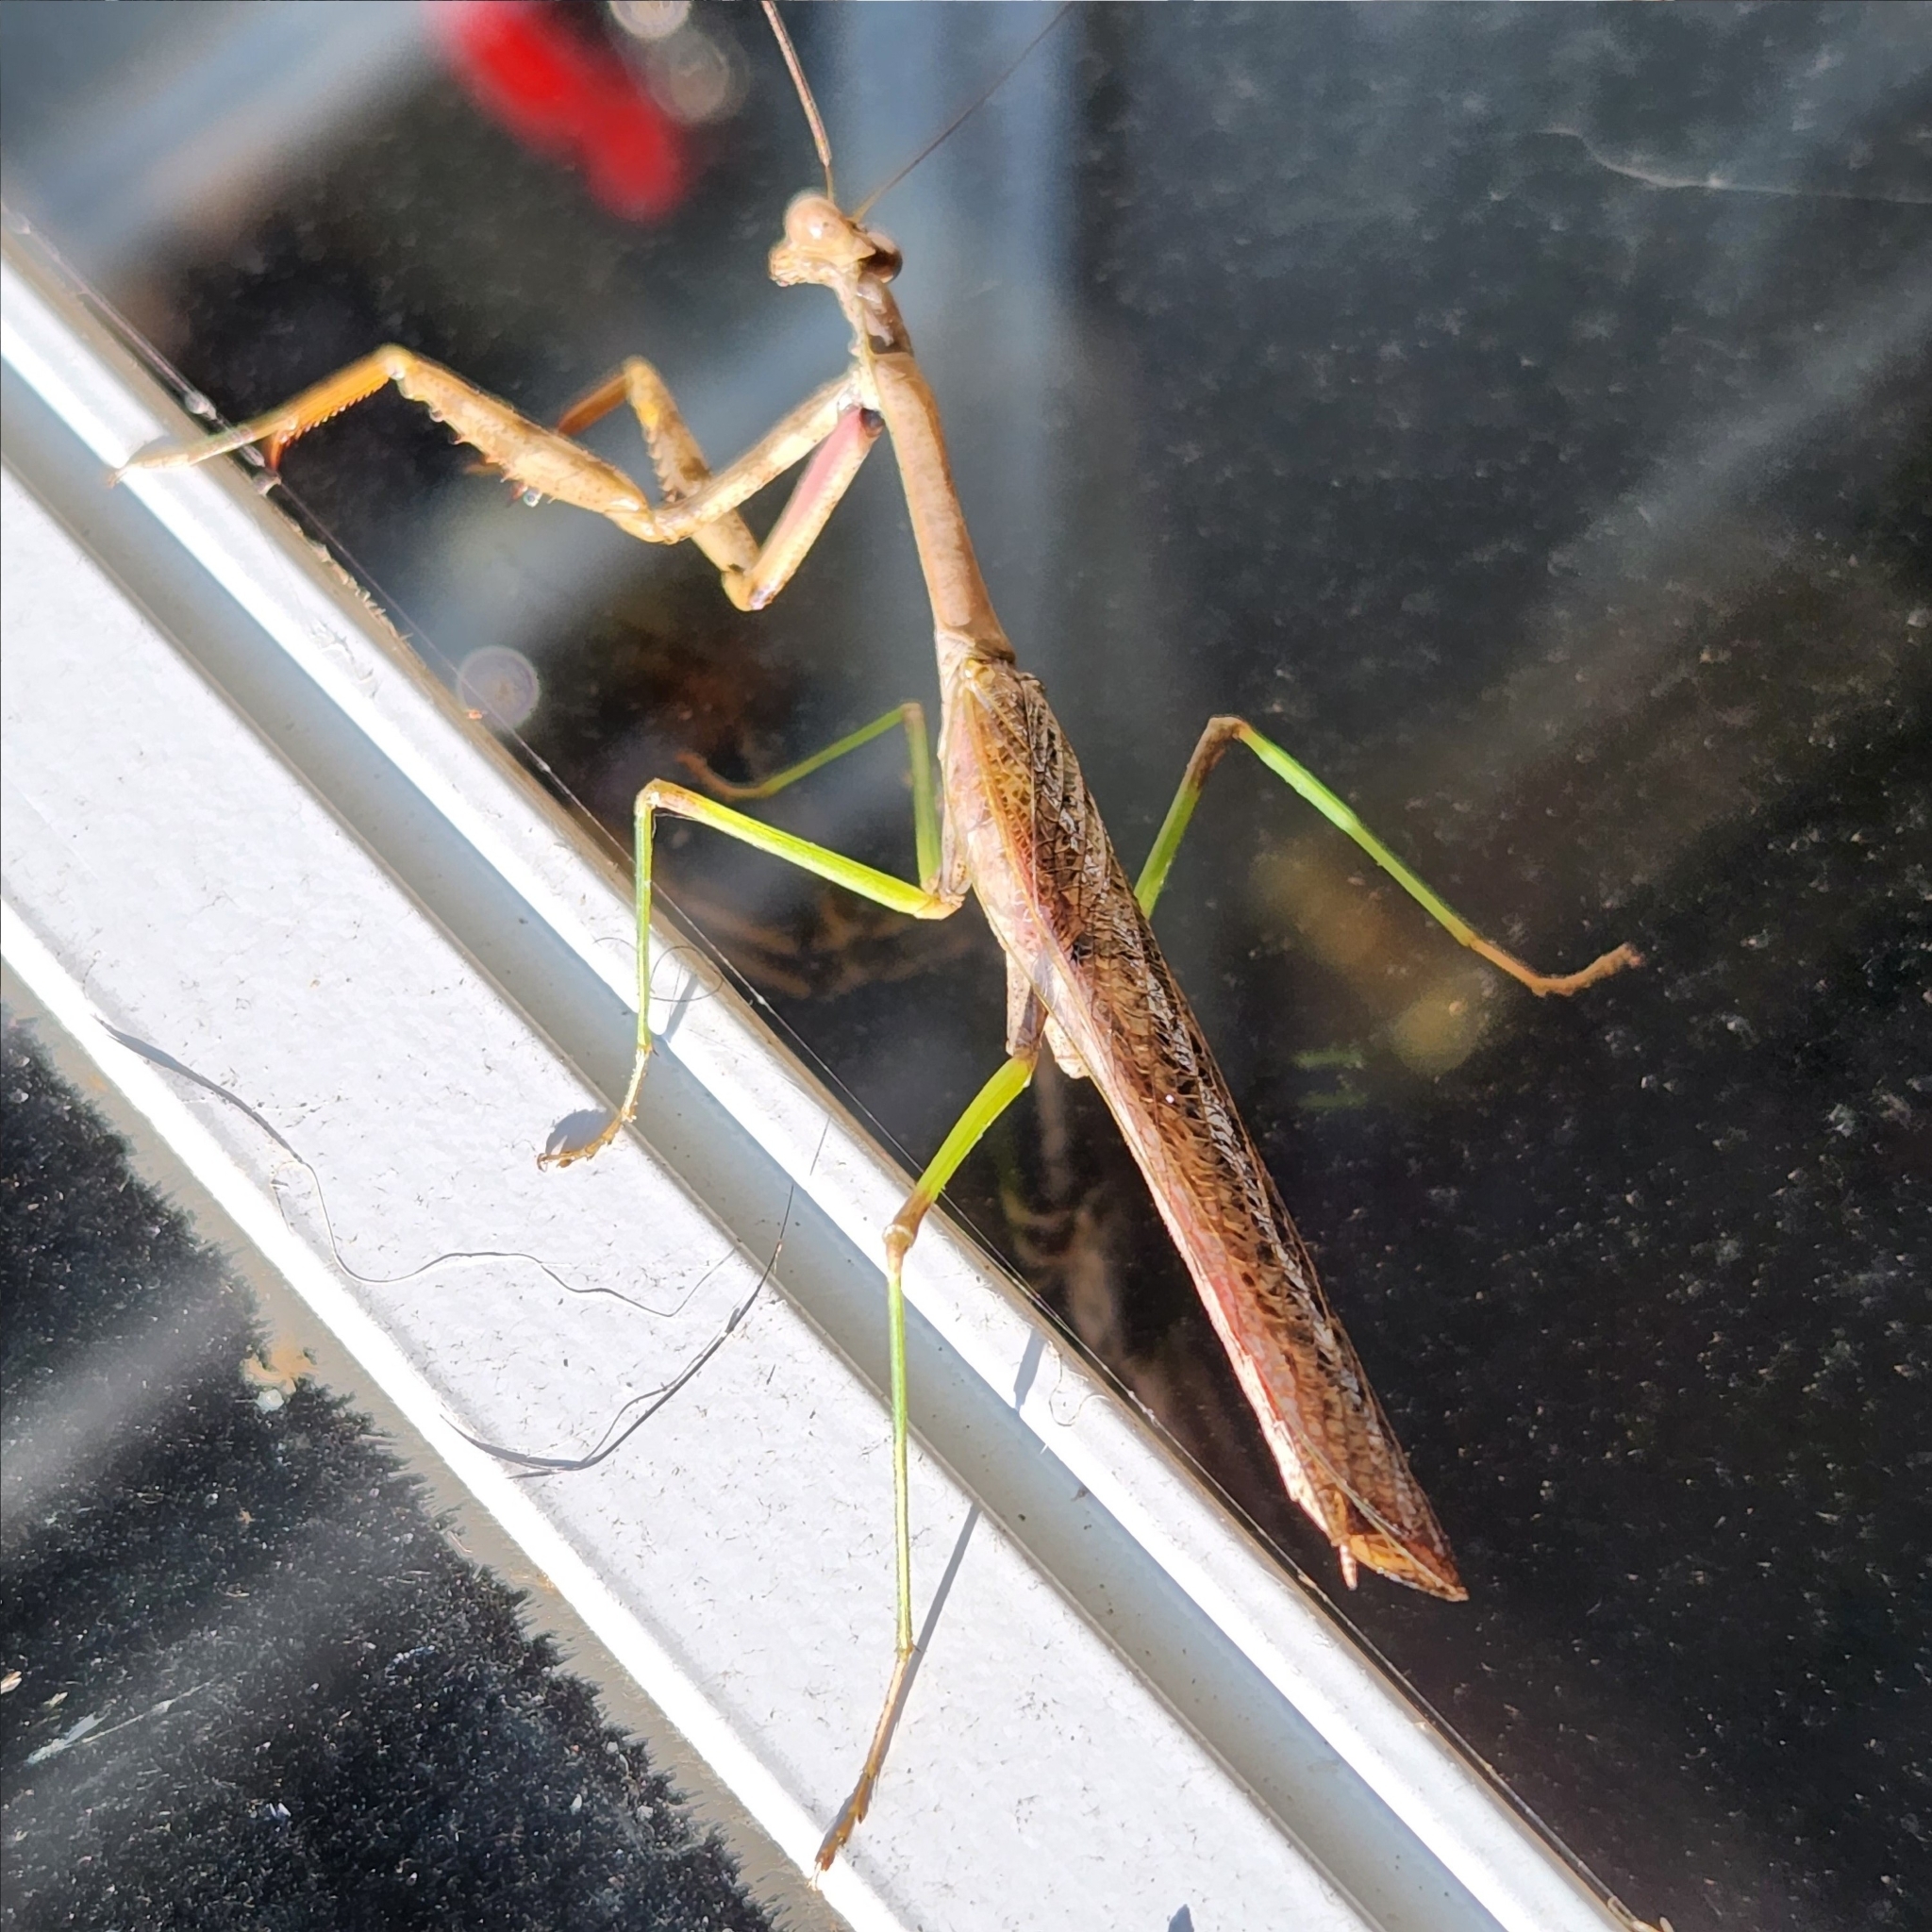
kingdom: Animalia
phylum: Arthropoda
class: Insecta
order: Mantodea
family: Mantidae
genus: Stagmomantis
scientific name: Stagmomantis carolina
